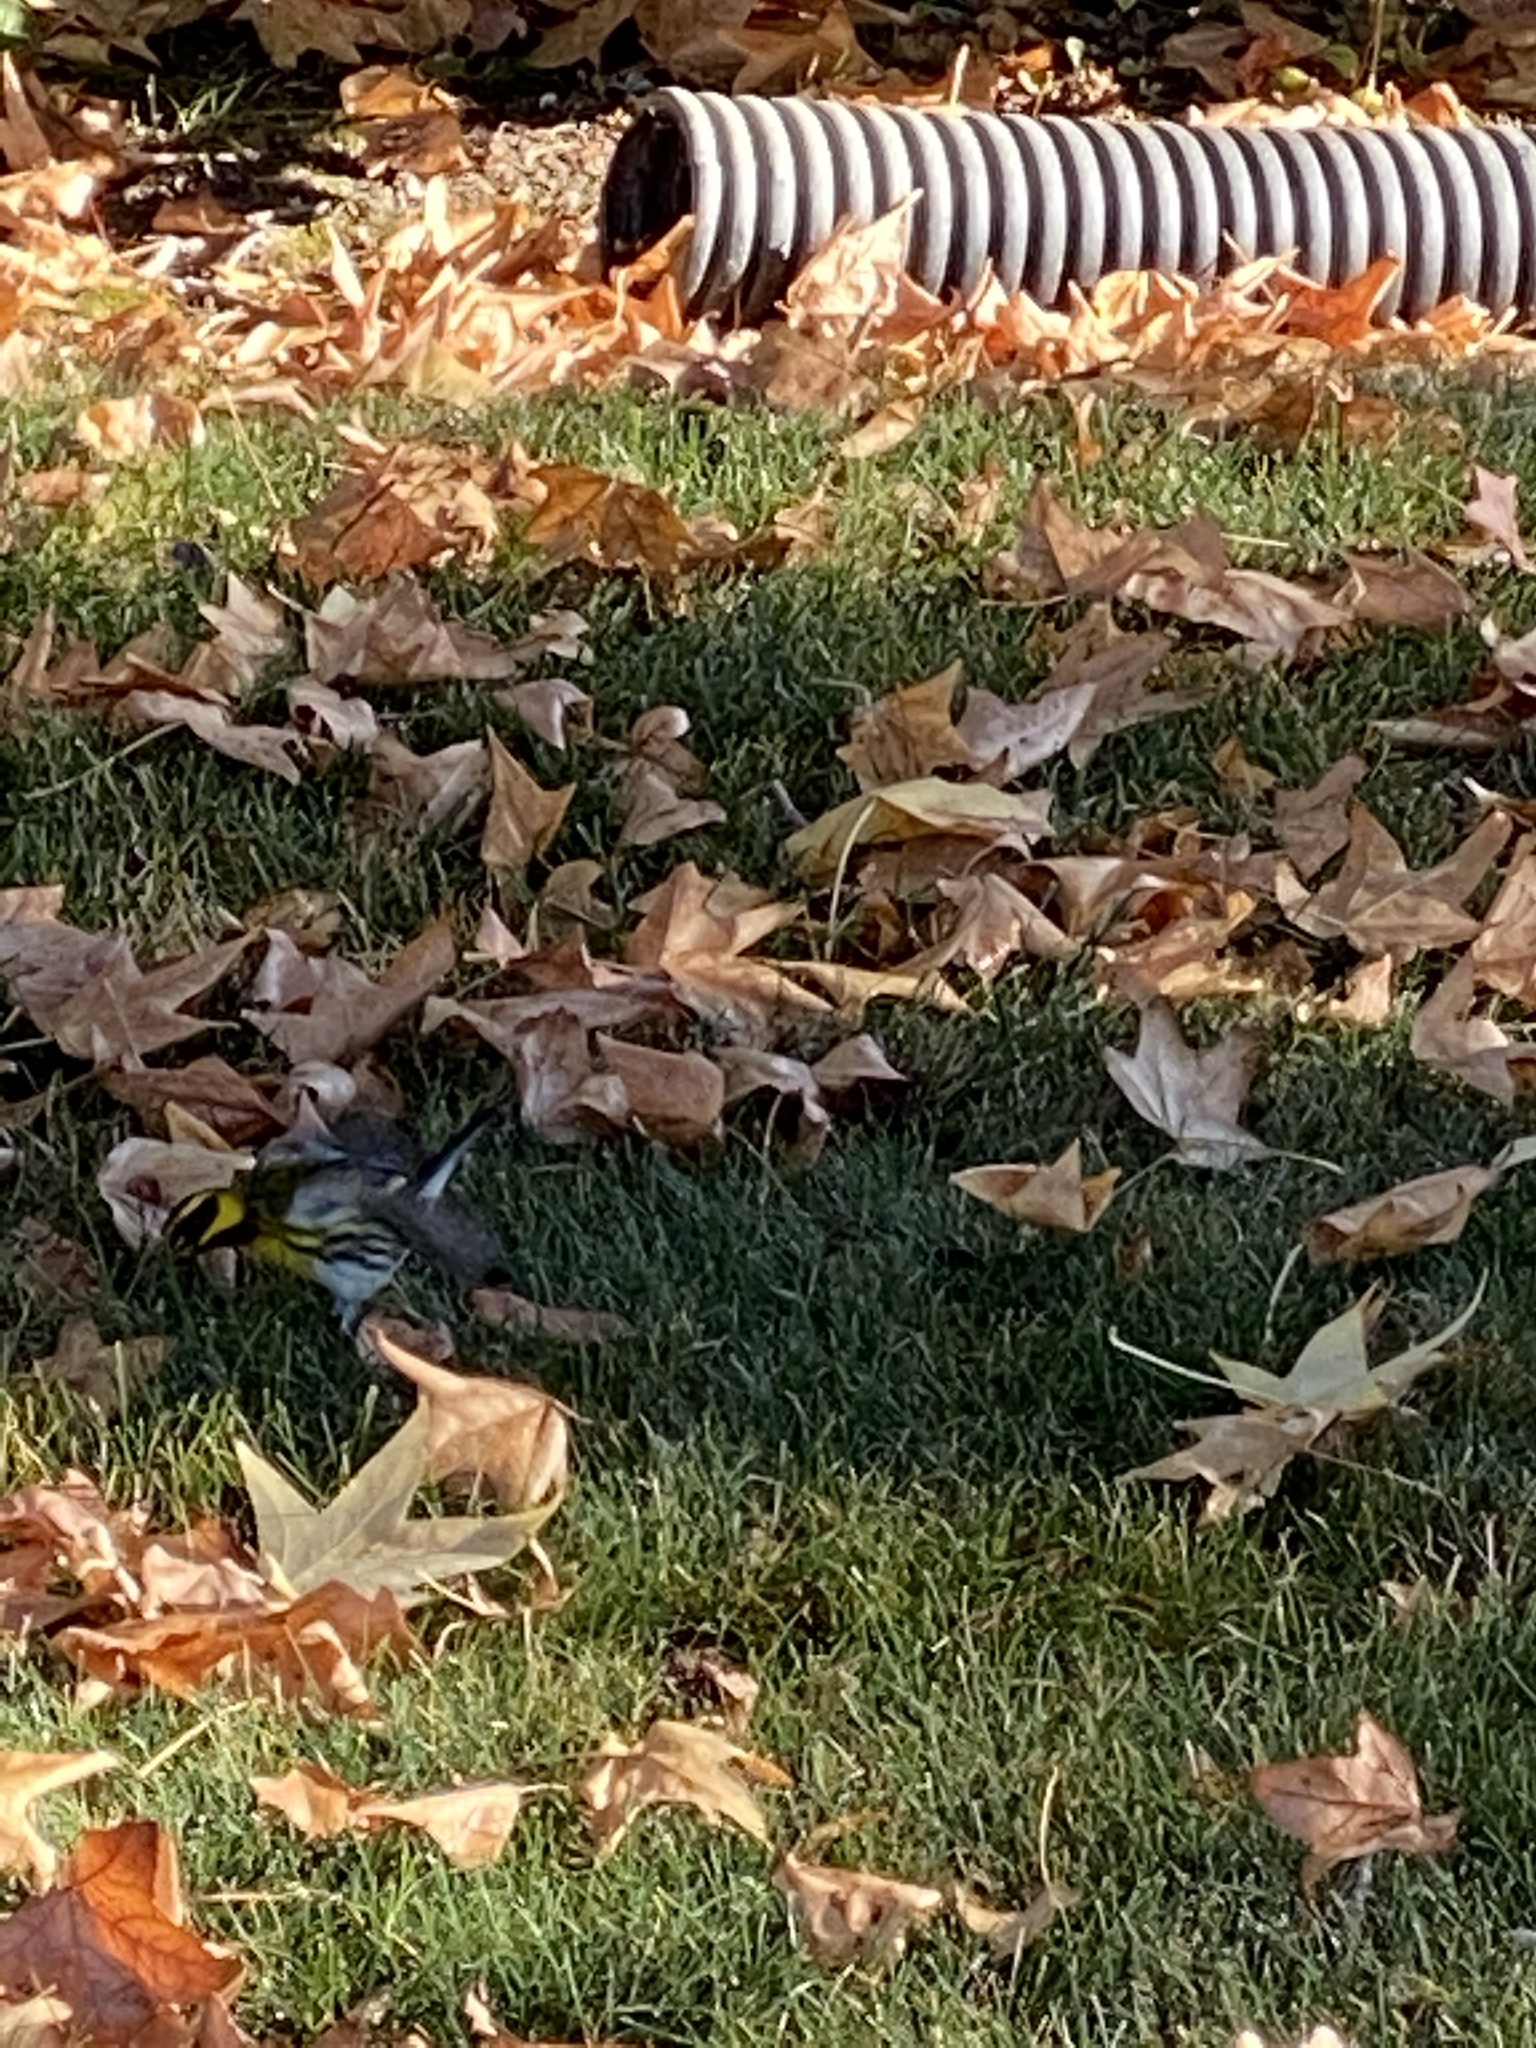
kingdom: Animalia
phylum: Chordata
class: Aves
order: Passeriformes
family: Parulidae
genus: Setophaga
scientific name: Setophaga townsendi
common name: Townsend's warbler
